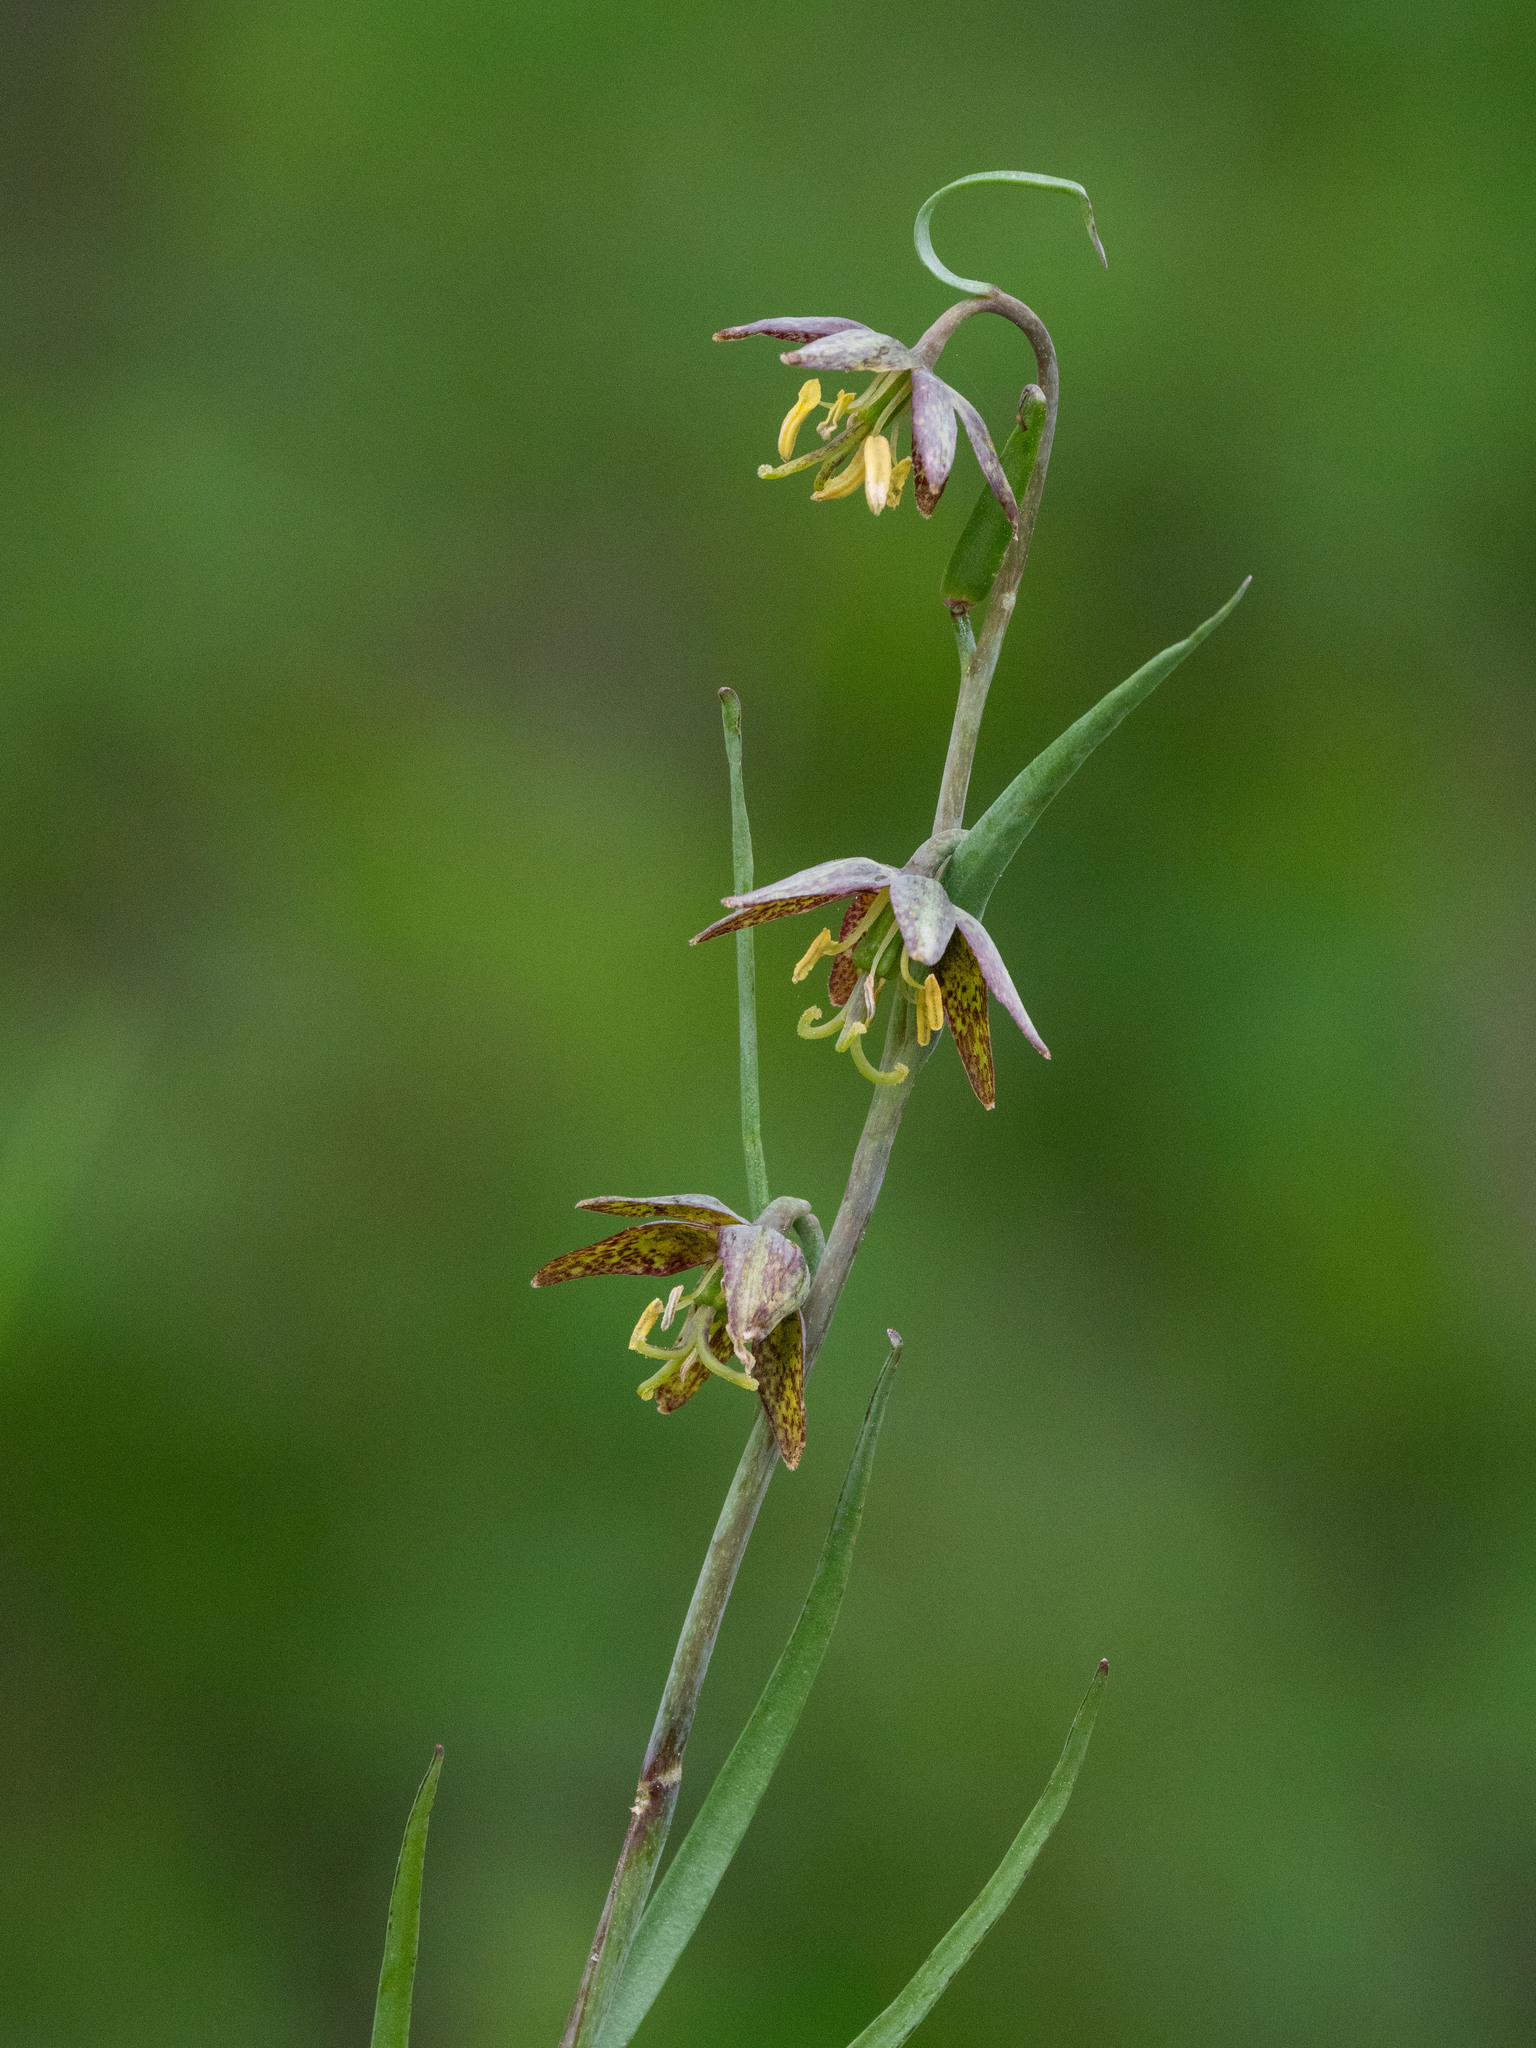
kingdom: Plantae
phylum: Tracheophyta
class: Liliopsida
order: Liliales
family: Liliaceae
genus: Fritillaria
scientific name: Fritillaria atropurpurea
